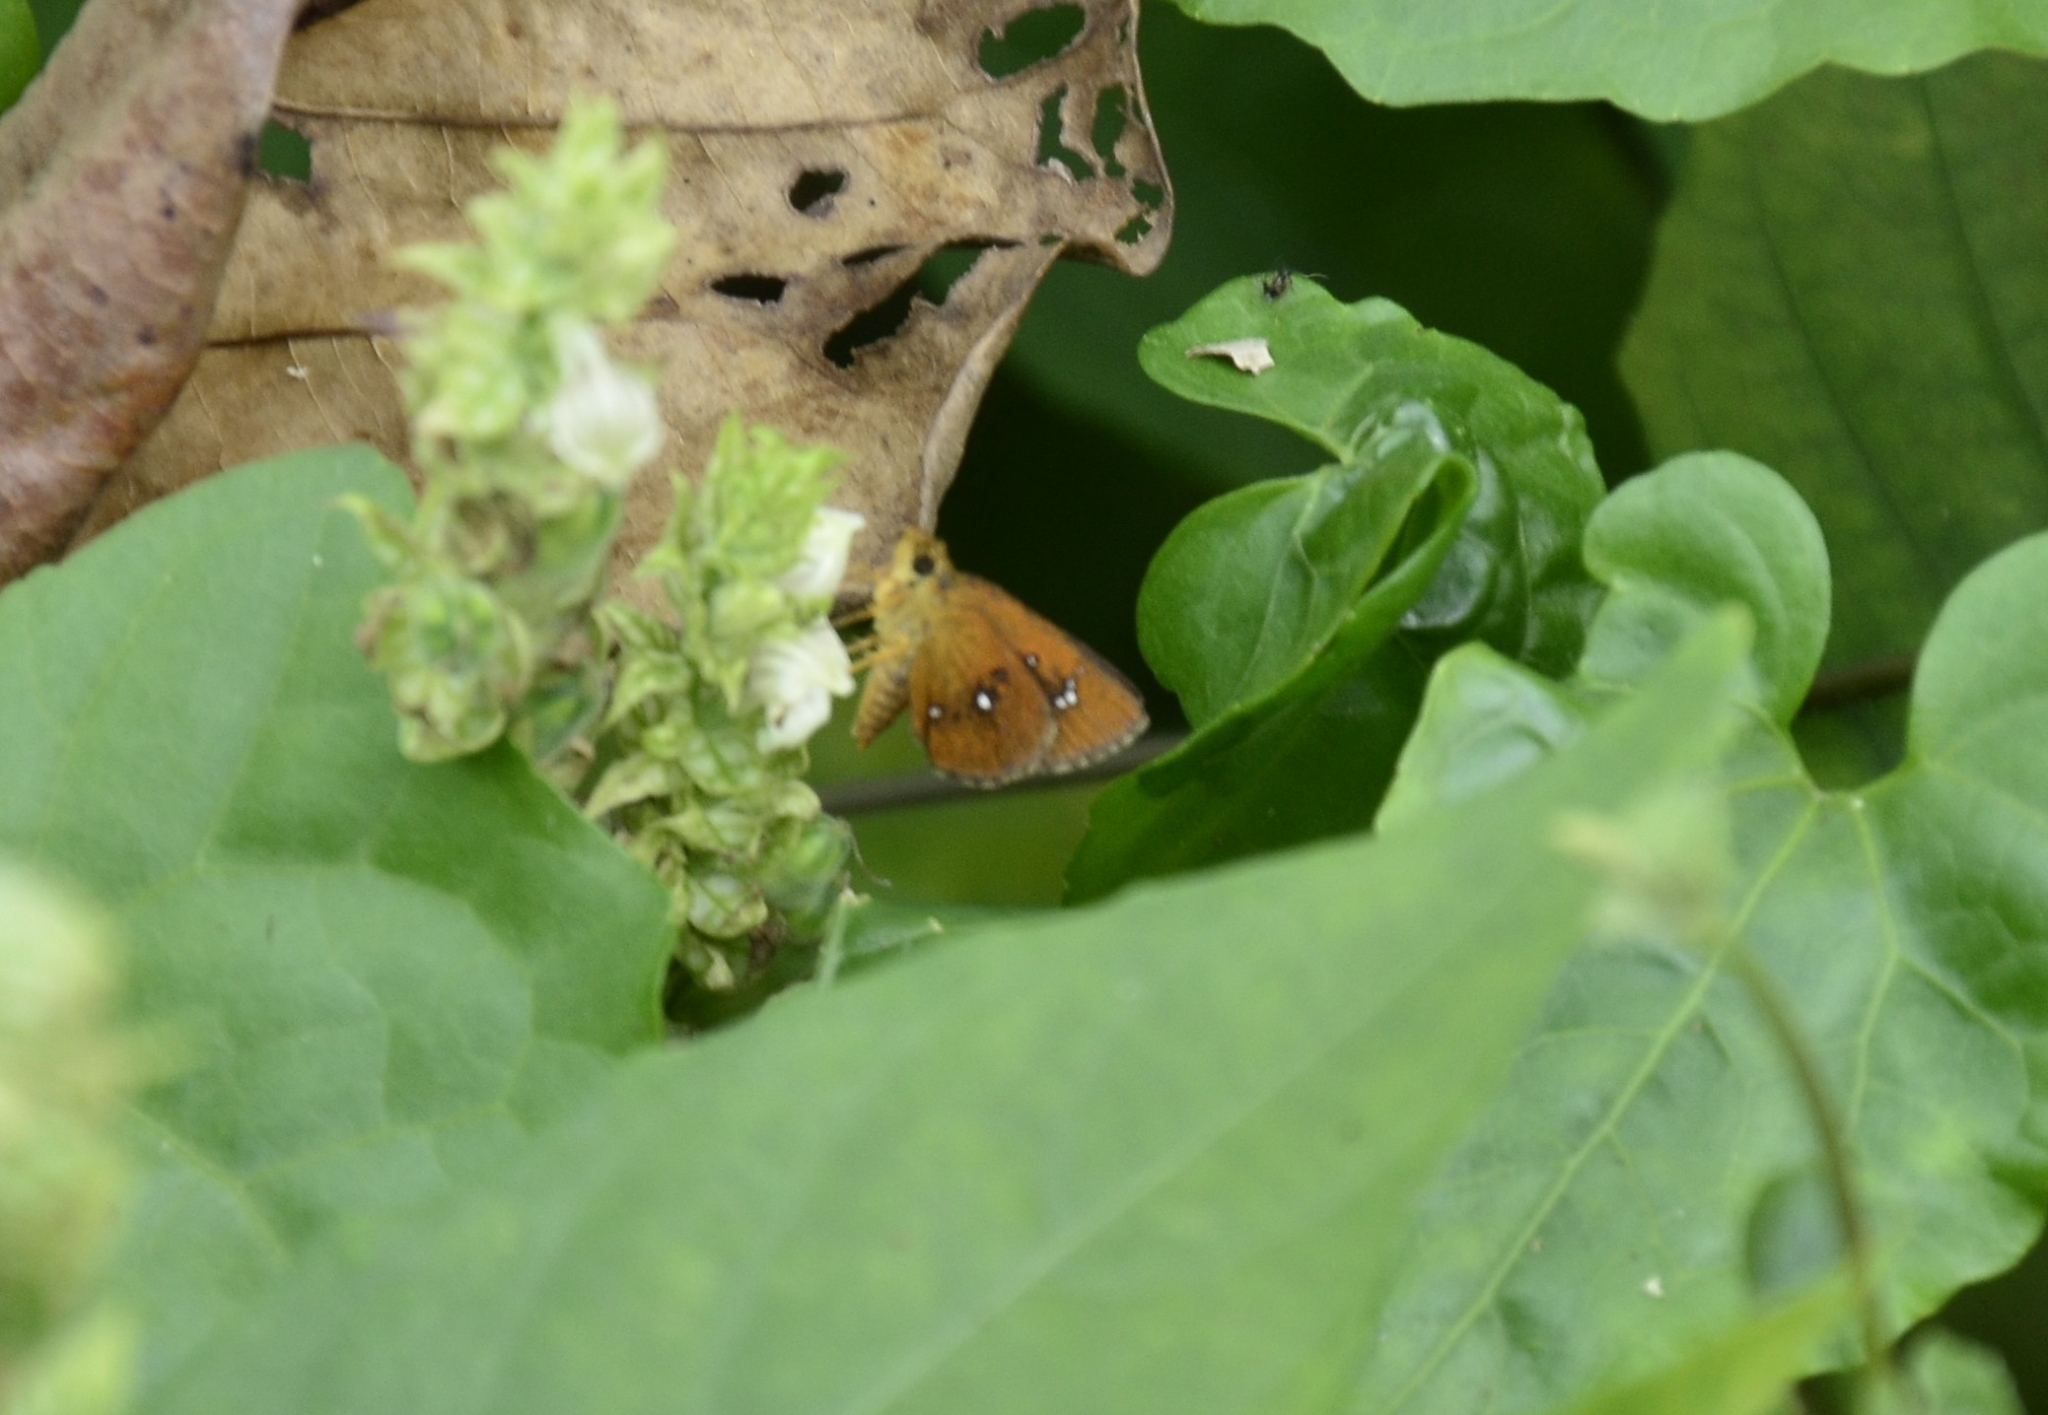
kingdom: Animalia
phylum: Arthropoda
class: Insecta
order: Lepidoptera
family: Hesperiidae
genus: Iambrix
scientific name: Iambrix salsala
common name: Chestnut bob
